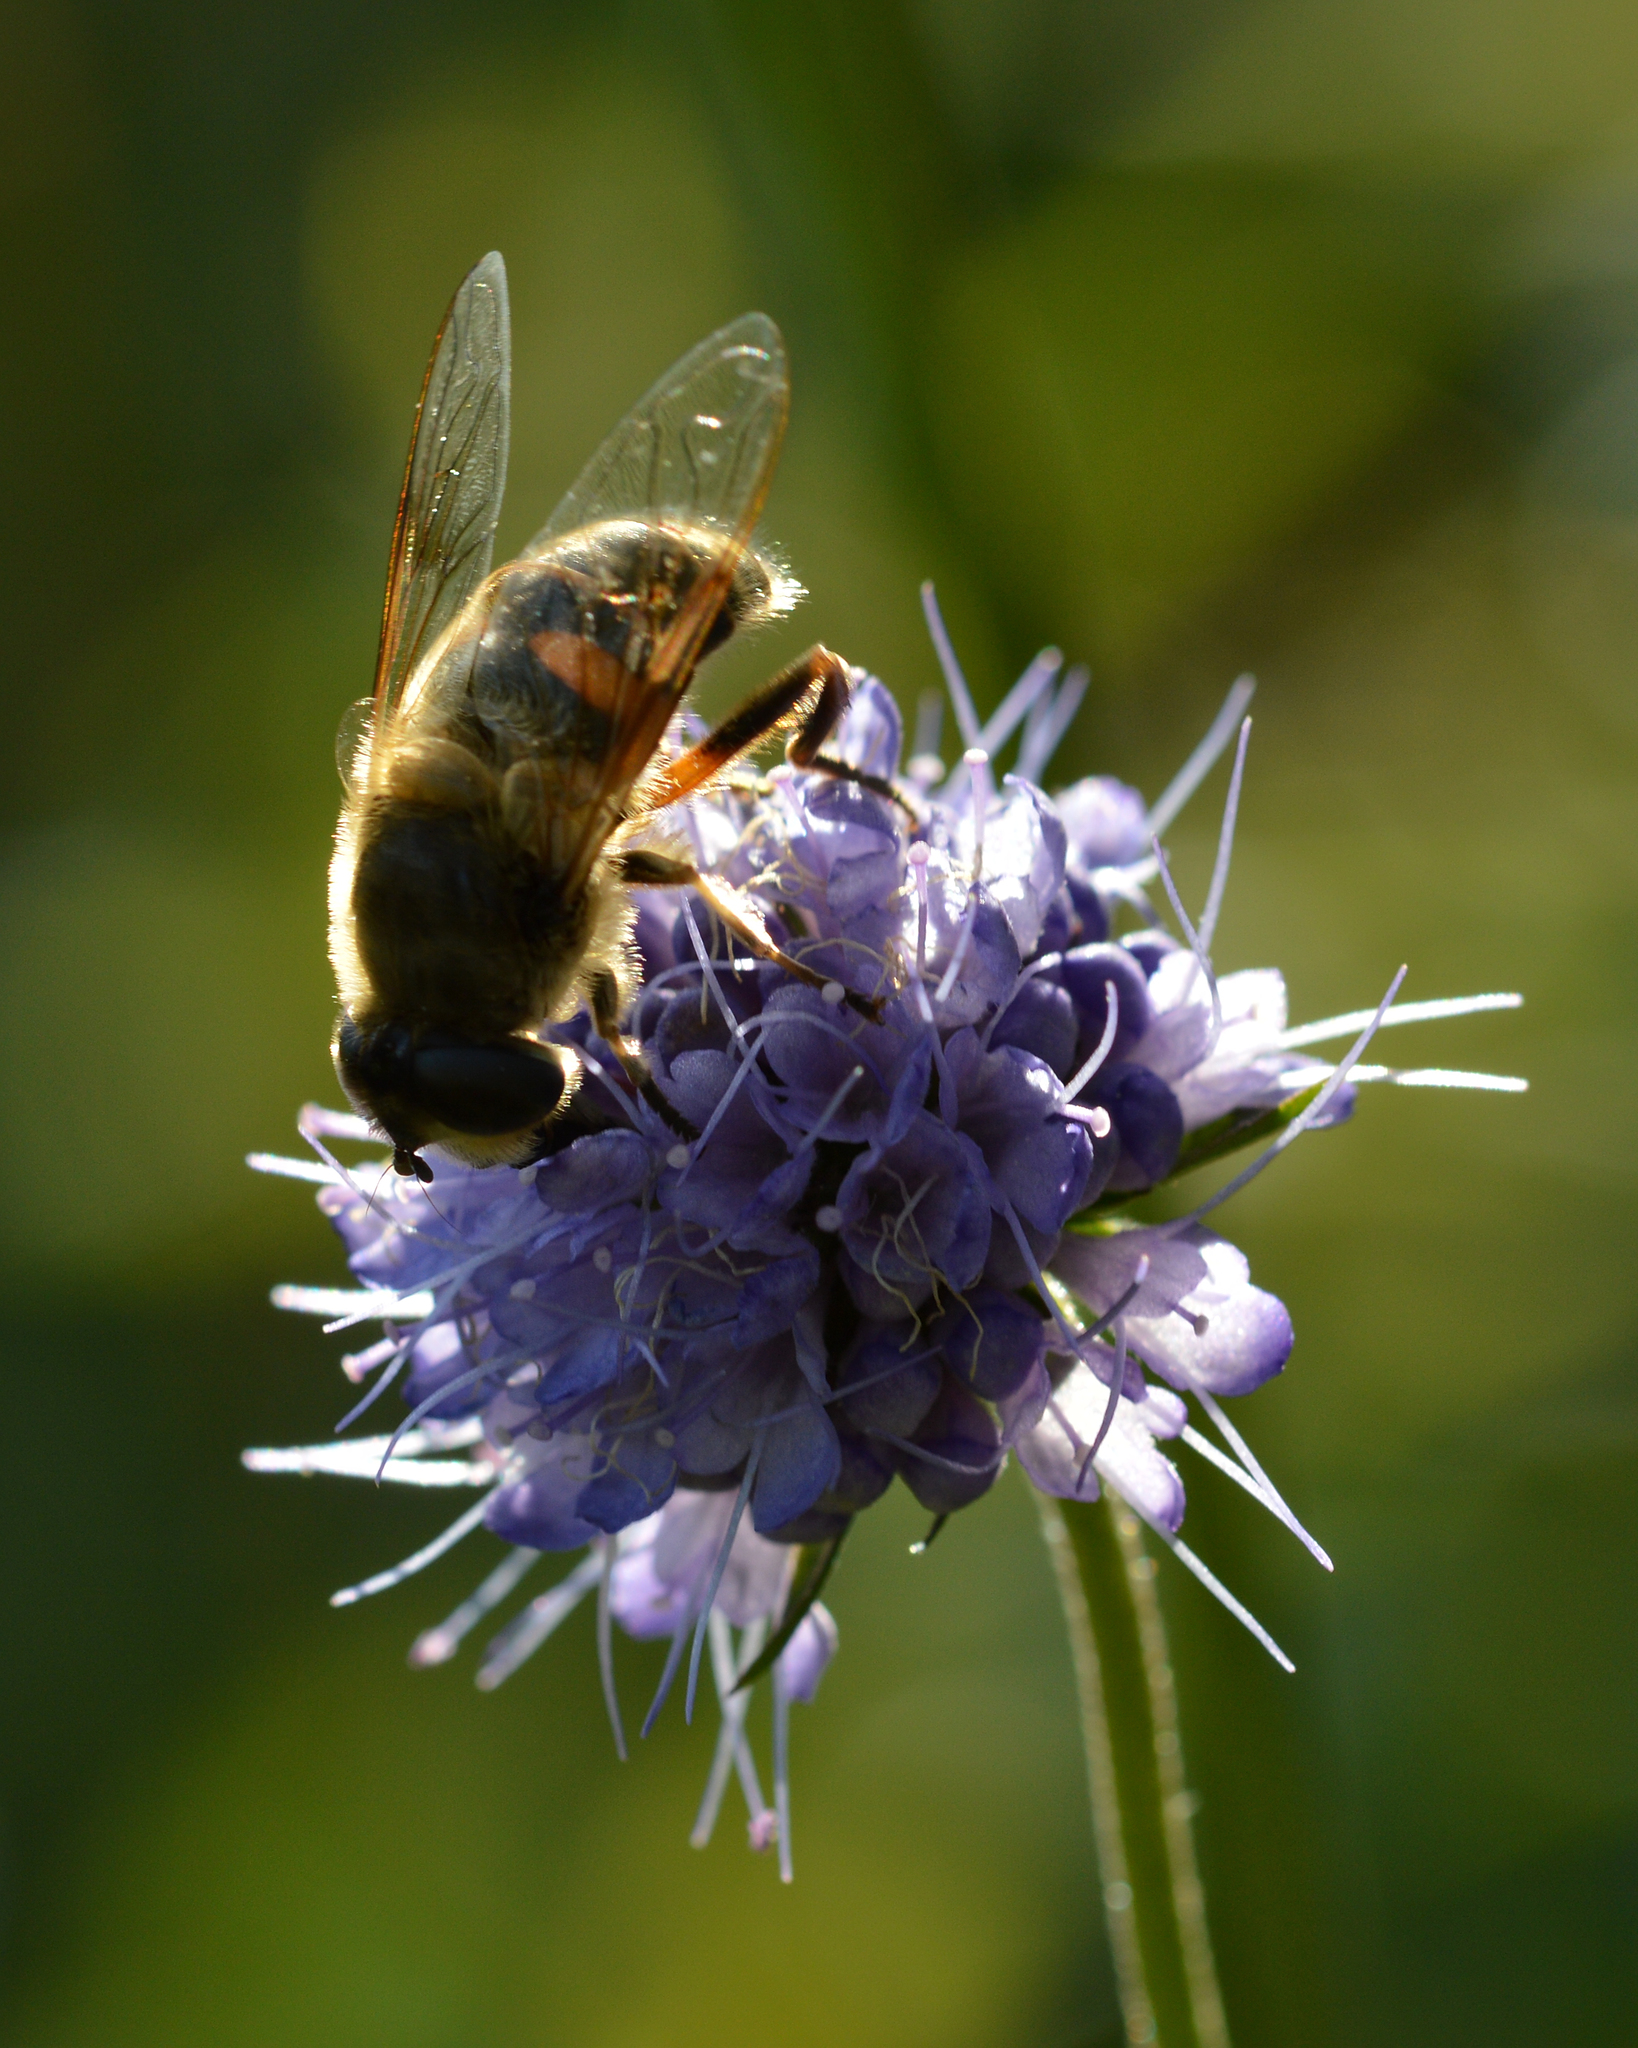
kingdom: Animalia
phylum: Arthropoda
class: Insecta
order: Diptera
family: Syrphidae
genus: Eristalis
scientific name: Eristalis tenax
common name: Drone fly
